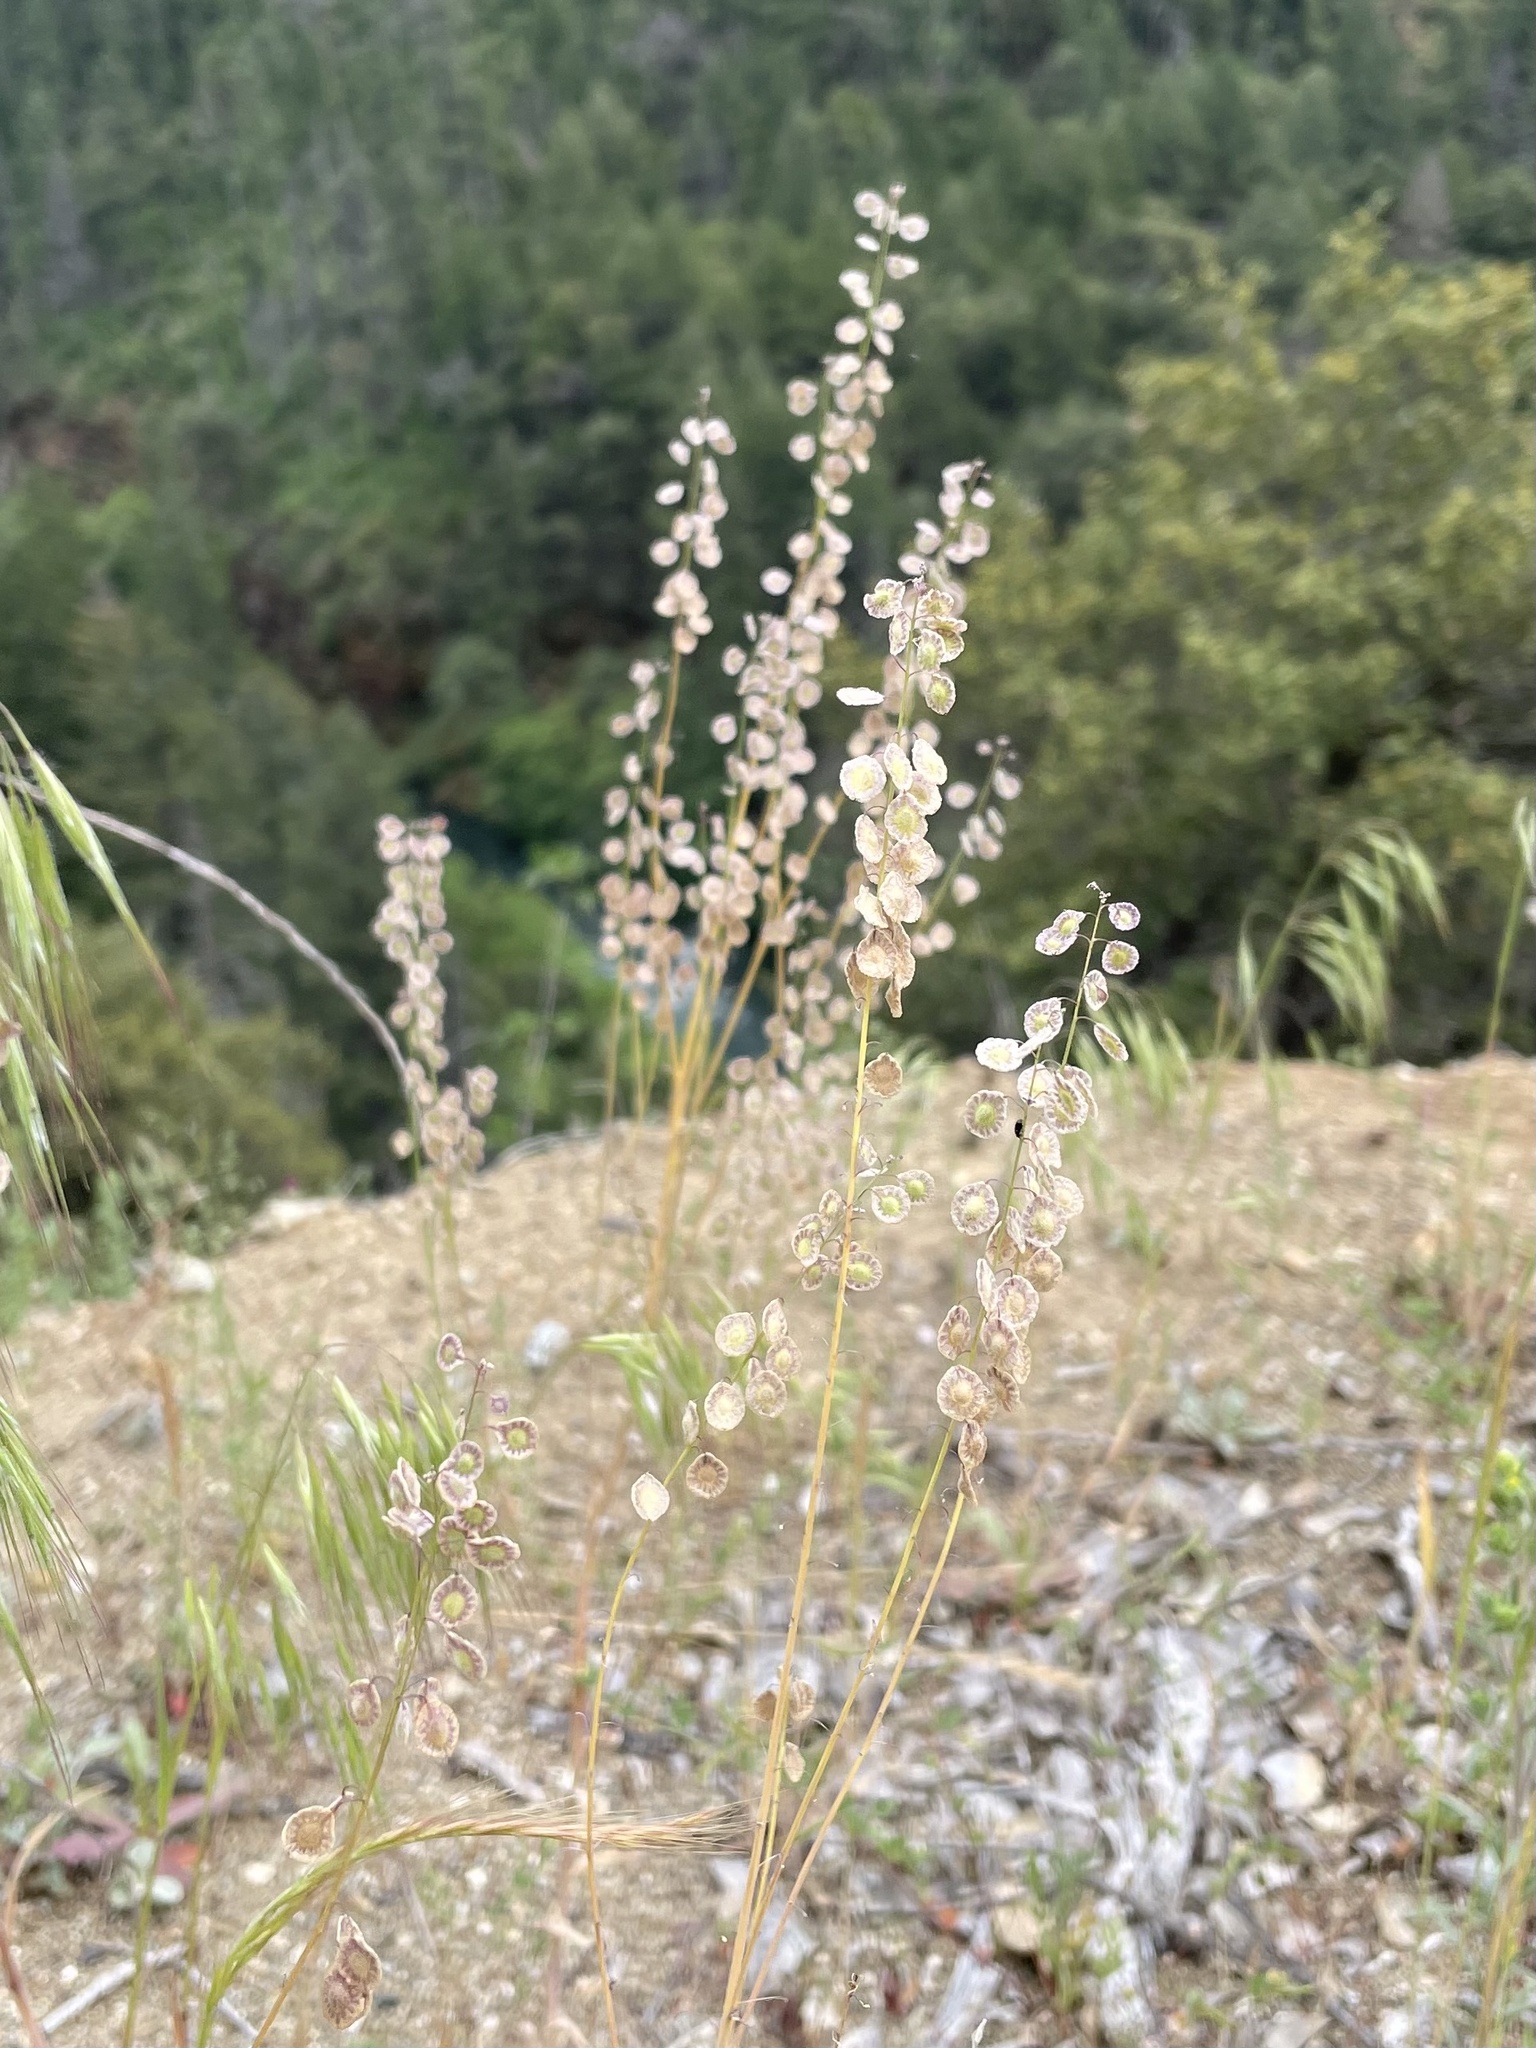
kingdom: Plantae
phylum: Tracheophyta
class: Magnoliopsida
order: Brassicales
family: Brassicaceae
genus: Thysanocarpus
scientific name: Thysanocarpus curvipes
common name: Sand fringepod
